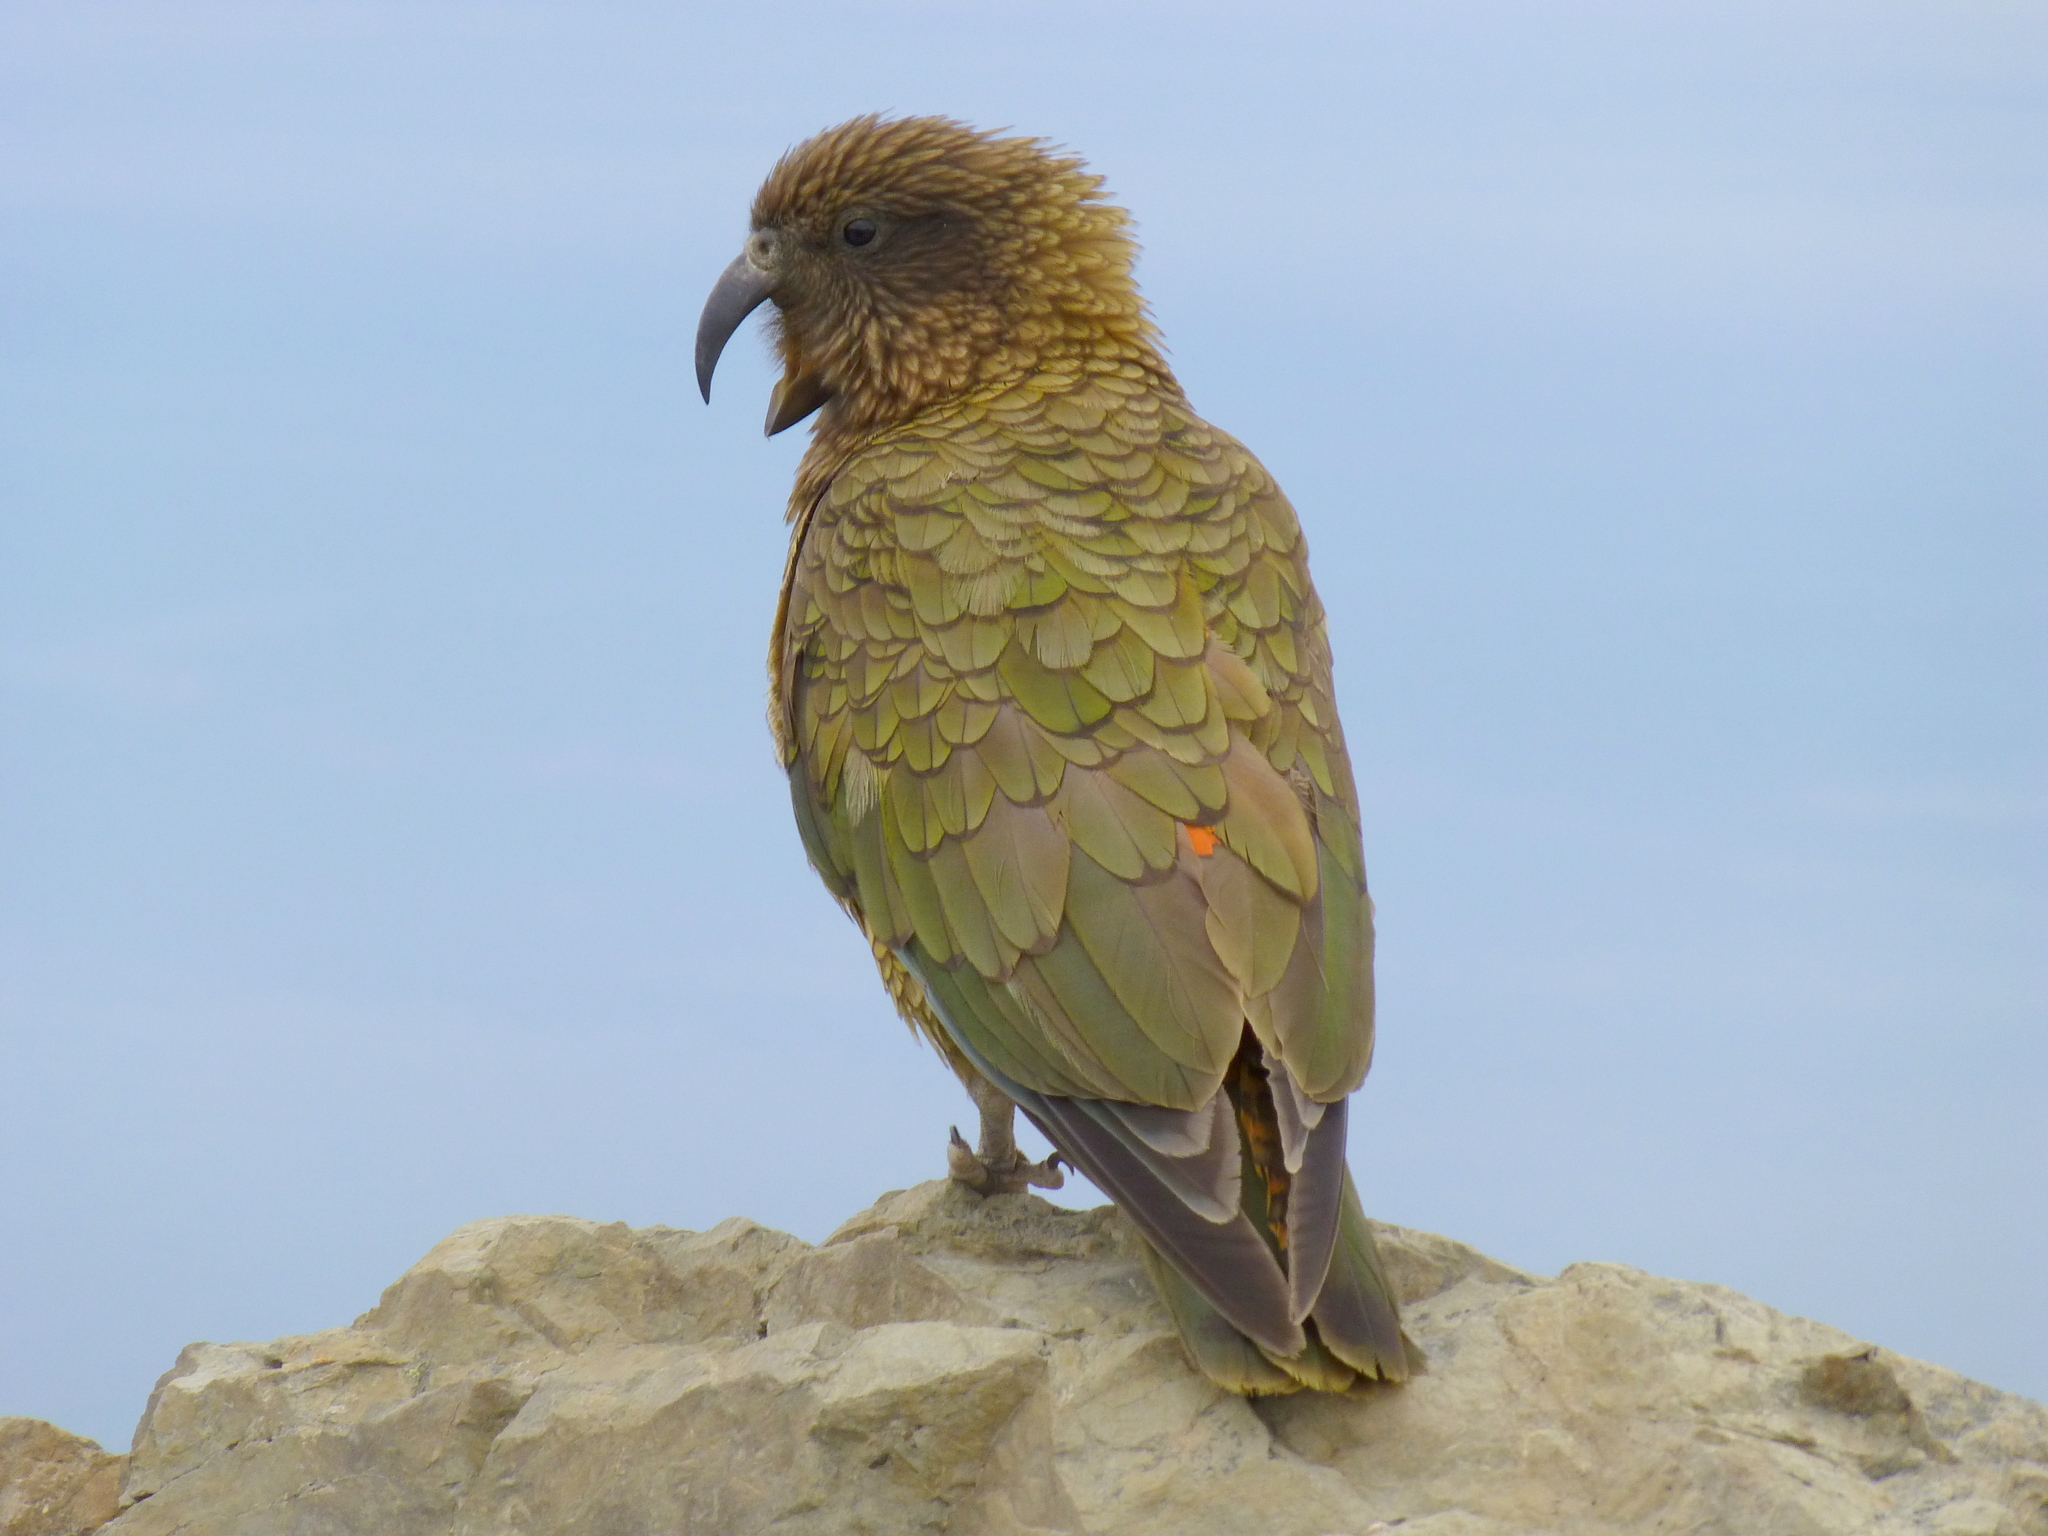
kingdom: Animalia
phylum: Chordata
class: Aves
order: Psittaciformes
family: Psittacidae
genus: Nestor
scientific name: Nestor notabilis
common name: Kea
